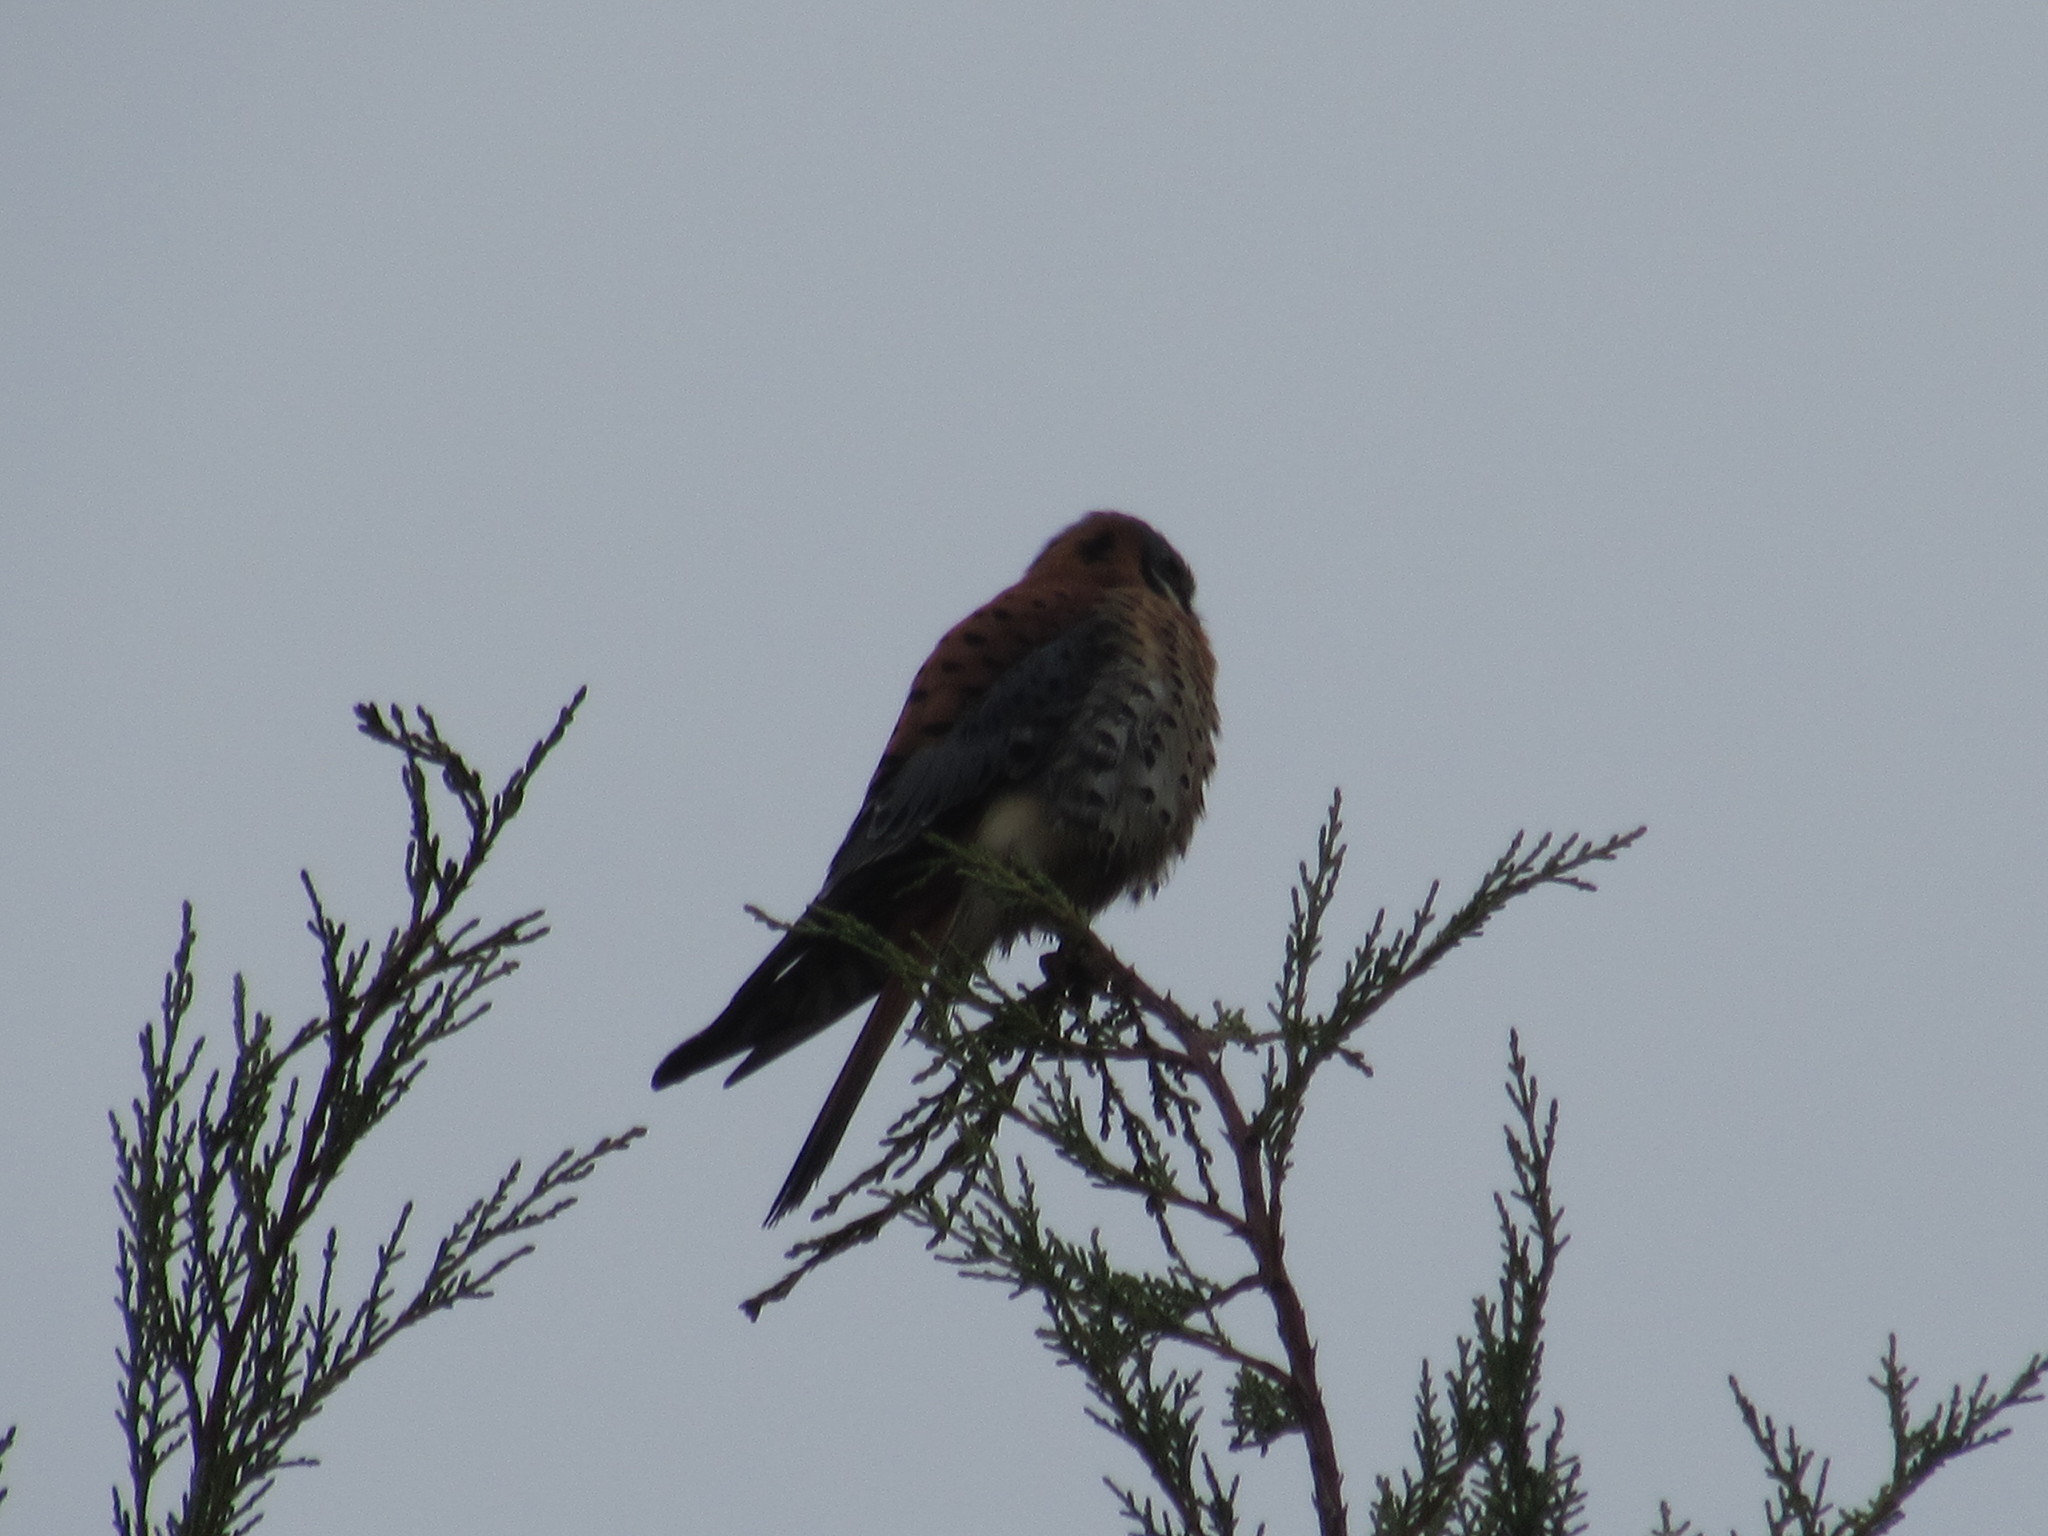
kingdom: Animalia
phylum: Chordata
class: Aves
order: Falconiformes
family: Falconidae
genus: Falco
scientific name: Falco sparverius
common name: American kestrel
